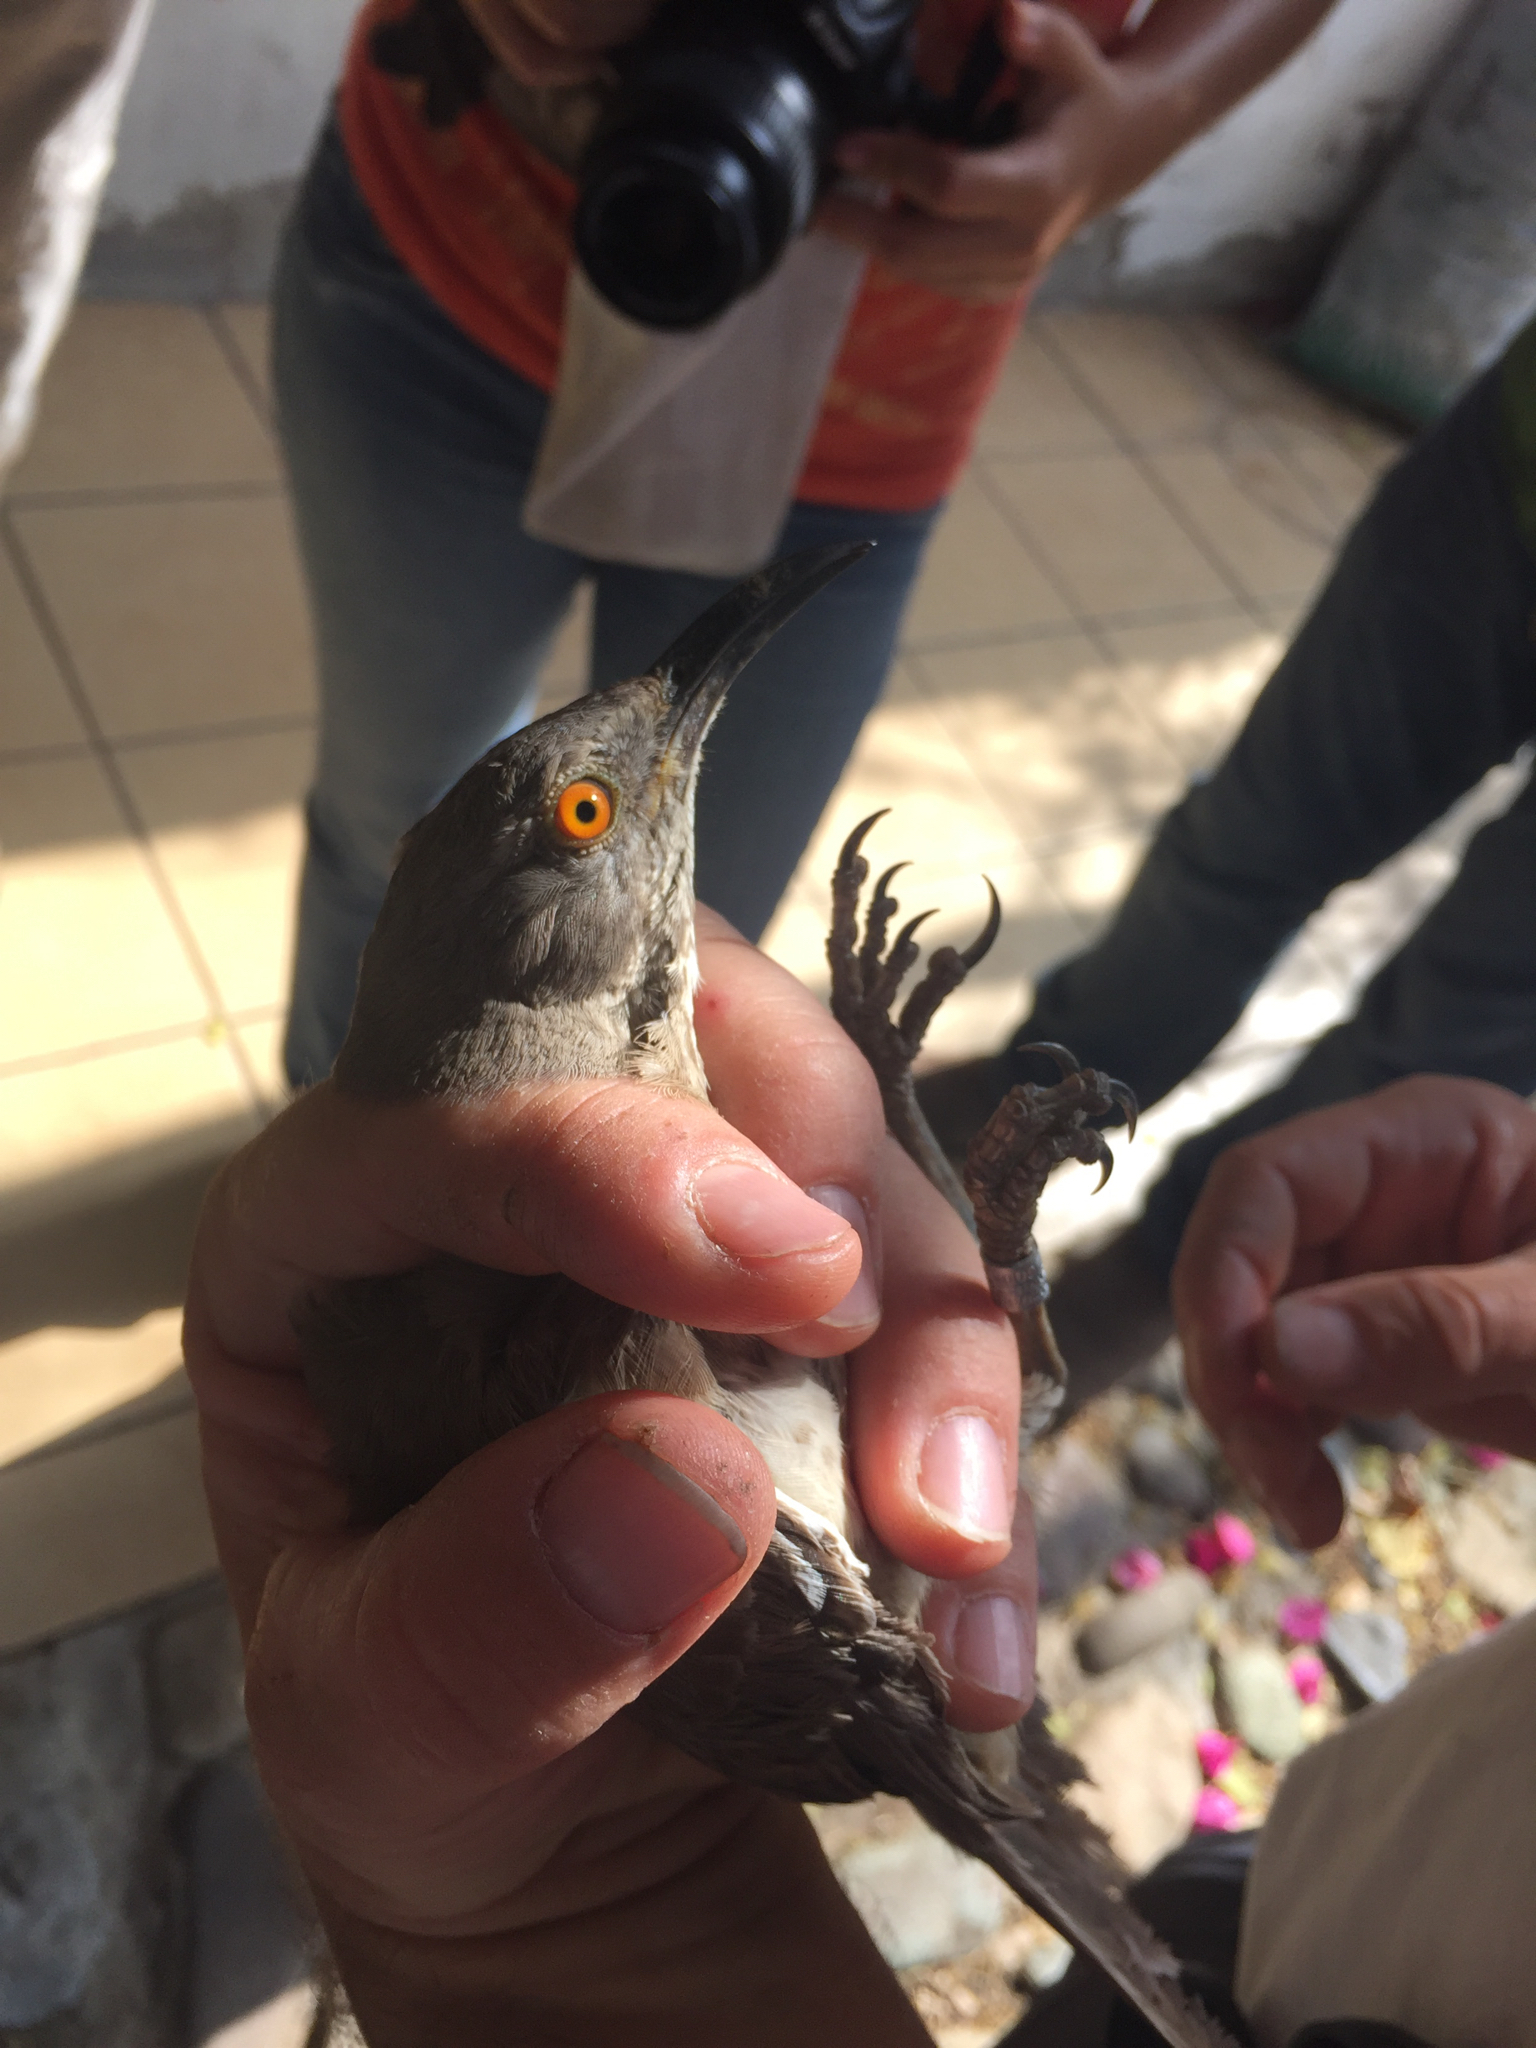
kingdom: Animalia
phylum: Chordata
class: Aves
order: Passeriformes
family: Mimidae
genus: Toxostoma
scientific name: Toxostoma curvirostre
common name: Curve-billed thrasher
